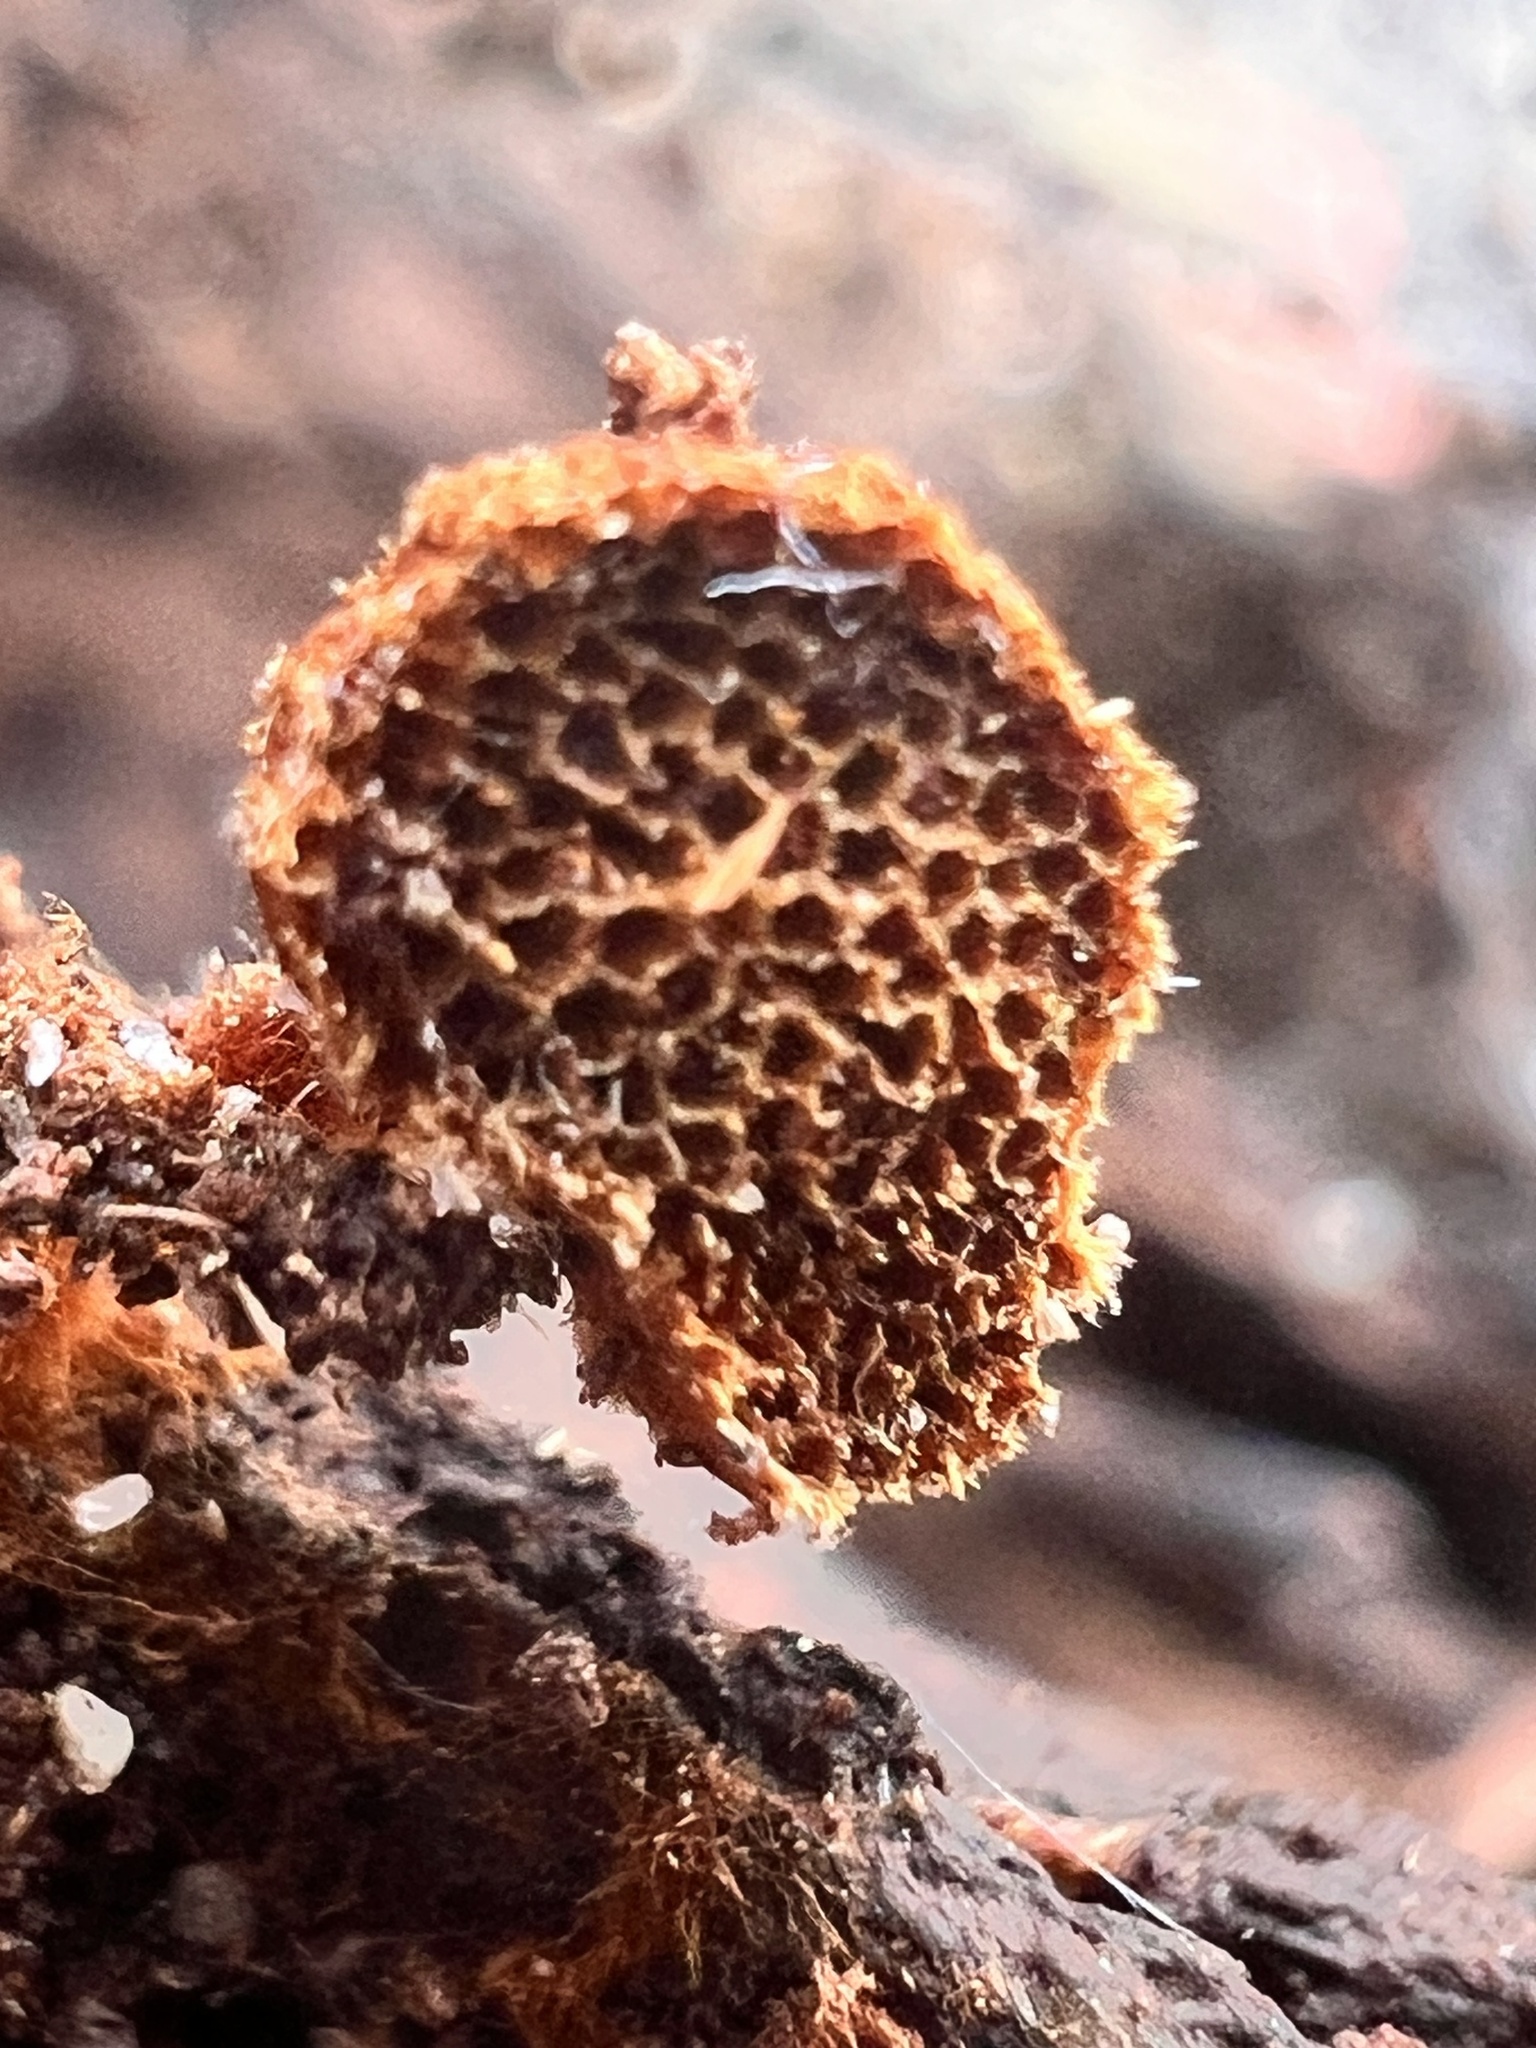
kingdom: Fungi
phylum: Basidiomycota
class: Agaricomycetes
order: Hymenochaetales
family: Hymenochaetaceae
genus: Coltriciella
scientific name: Coltriciella dependens
